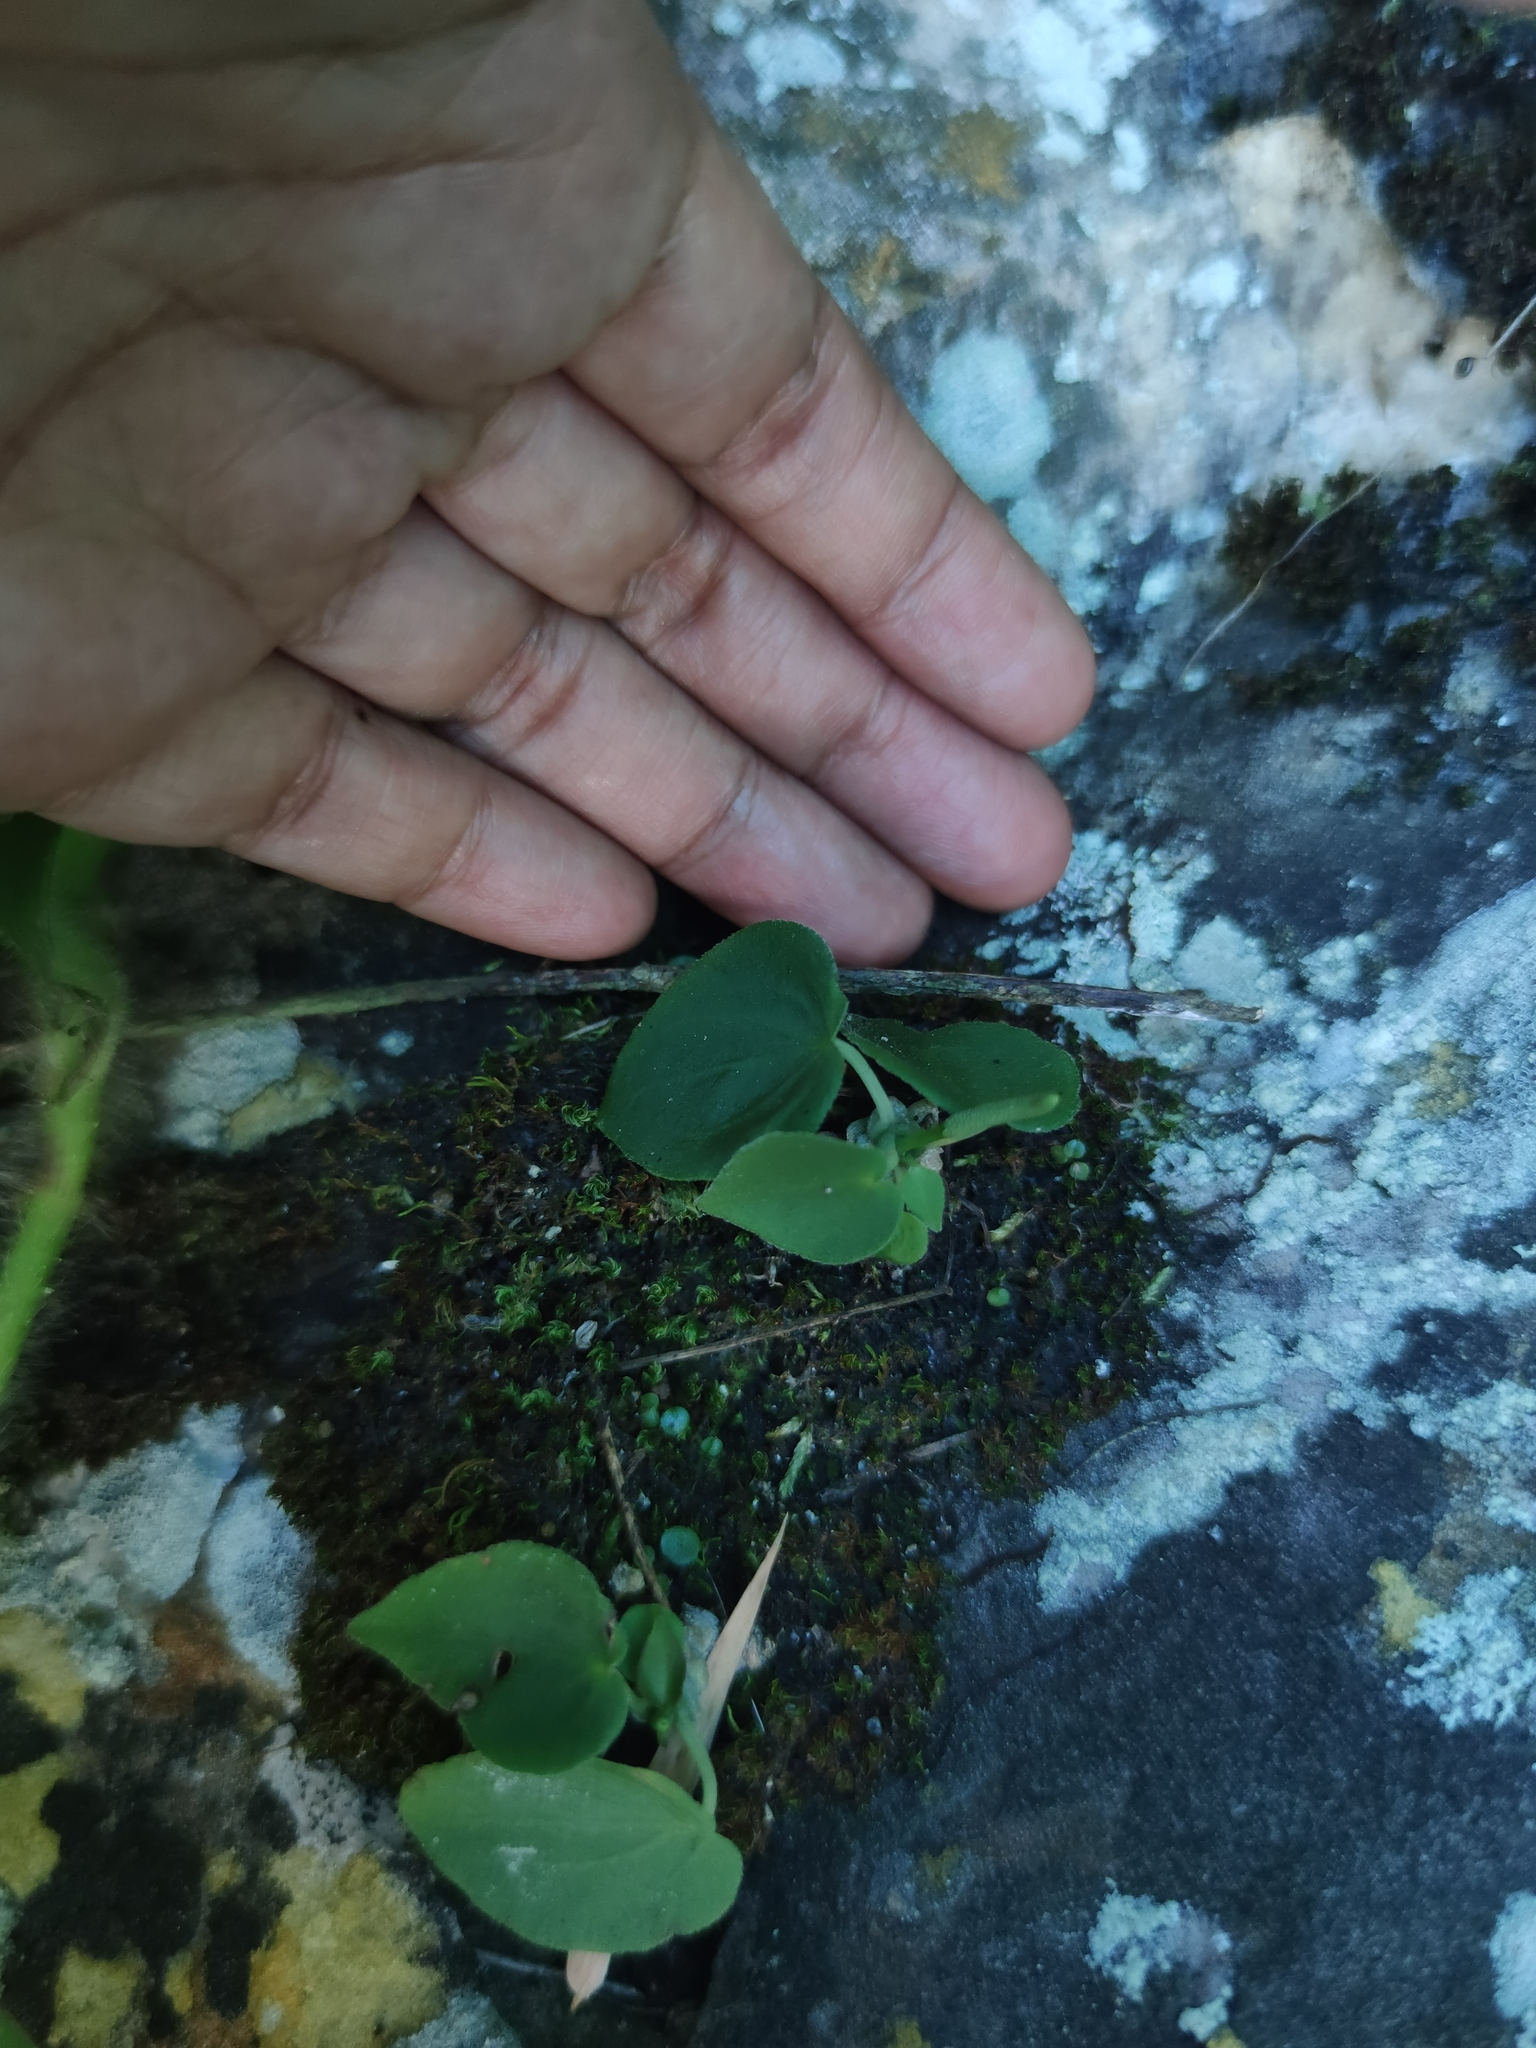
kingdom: Plantae
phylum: Tracheophyta
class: Magnoliopsida
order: Piperales
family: Piperaceae
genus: Peperomia
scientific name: Peperomia tuerckheimii
